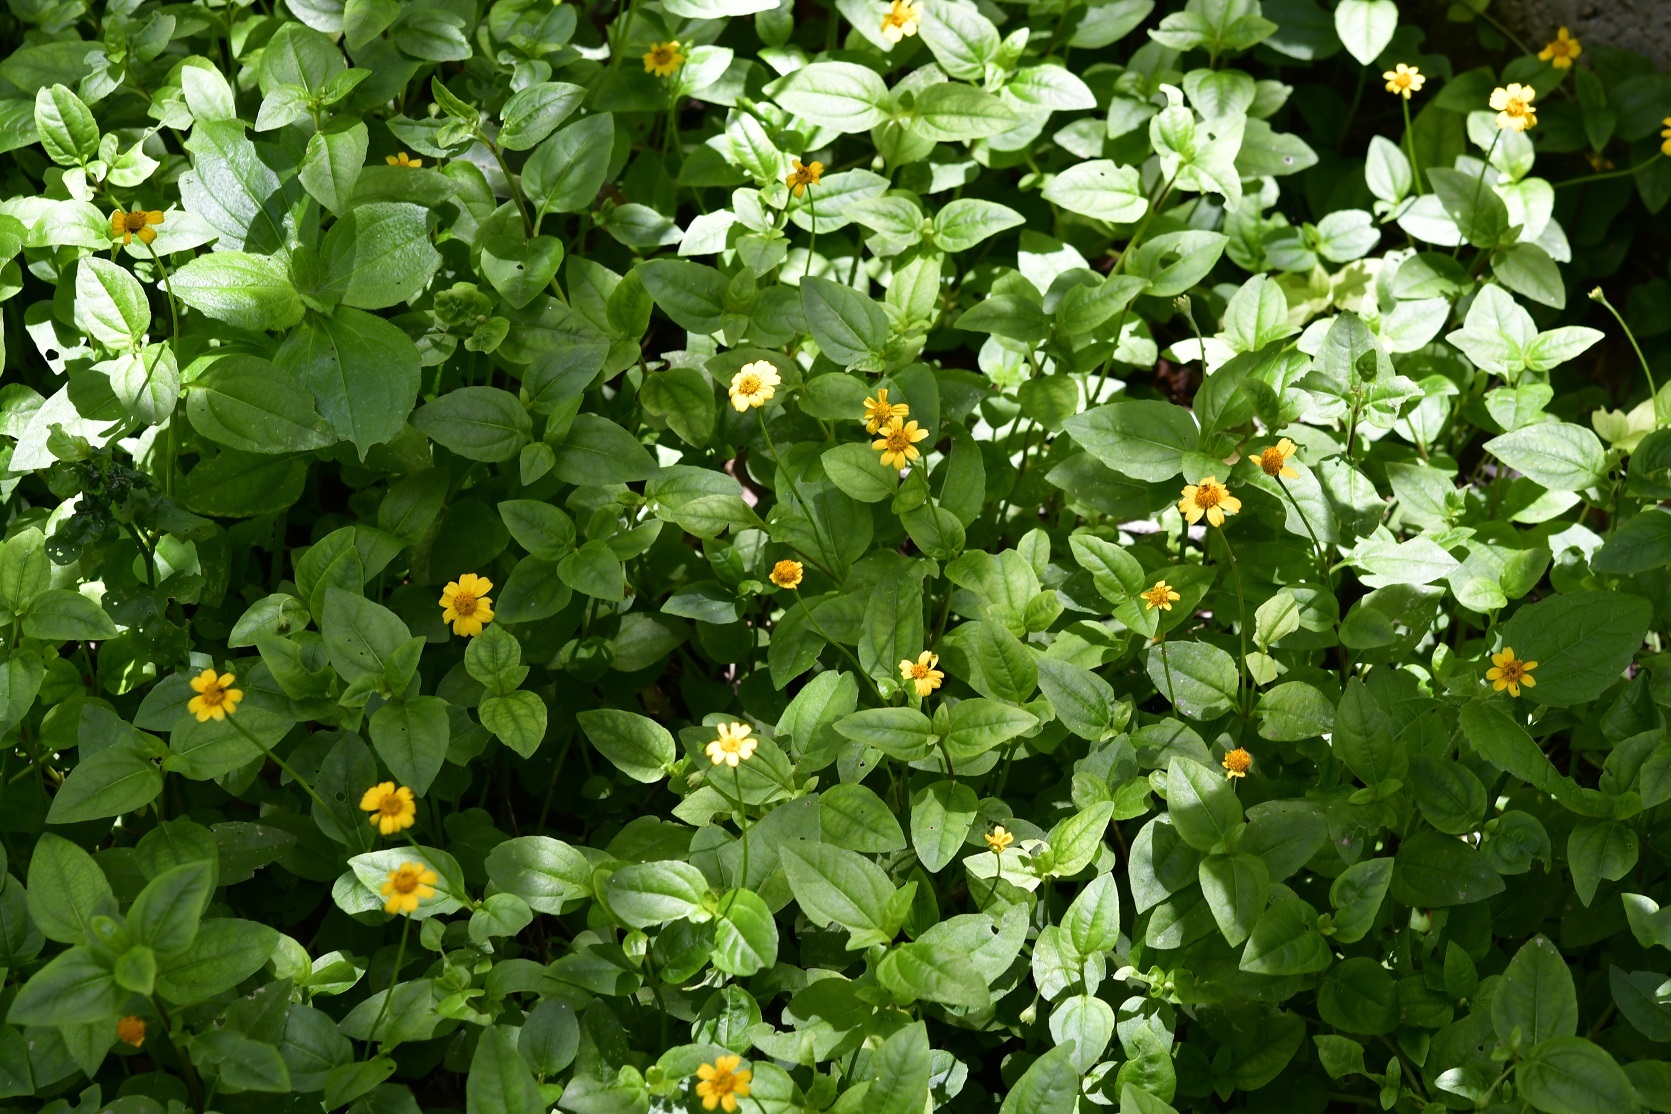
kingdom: Plantae
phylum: Tracheophyta
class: Magnoliopsida
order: Asterales
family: Asteraceae
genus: Acmella
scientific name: Acmella repens
